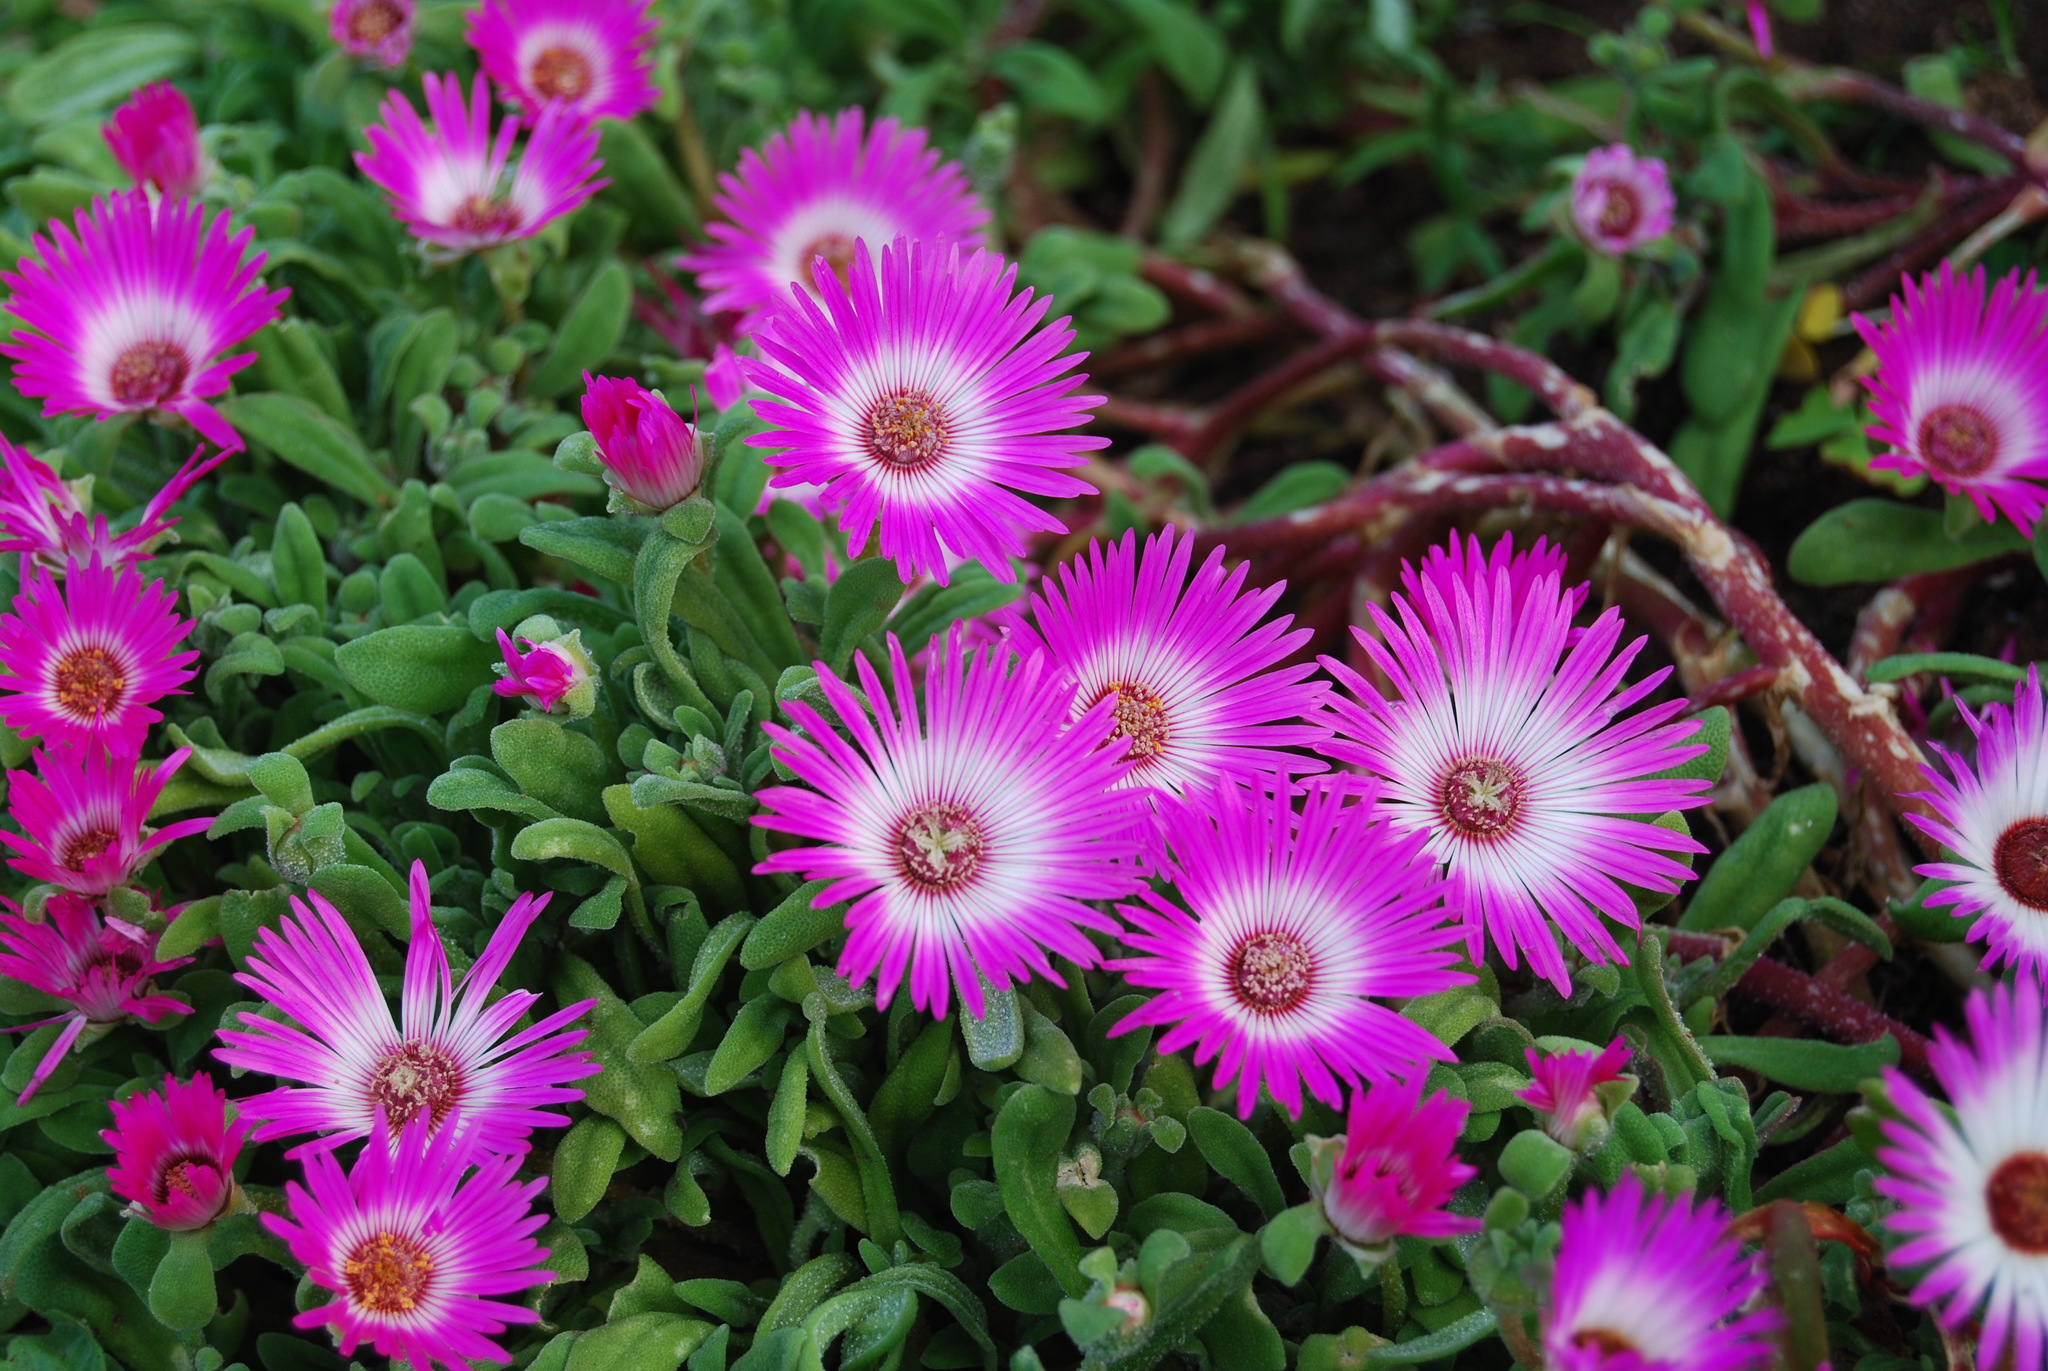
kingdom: Plantae
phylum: Tracheophyta
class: Magnoliopsida
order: Caryophyllales
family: Aizoaceae
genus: Cleretum
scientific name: Cleretum bellidiforme
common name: Livingstone daisy
